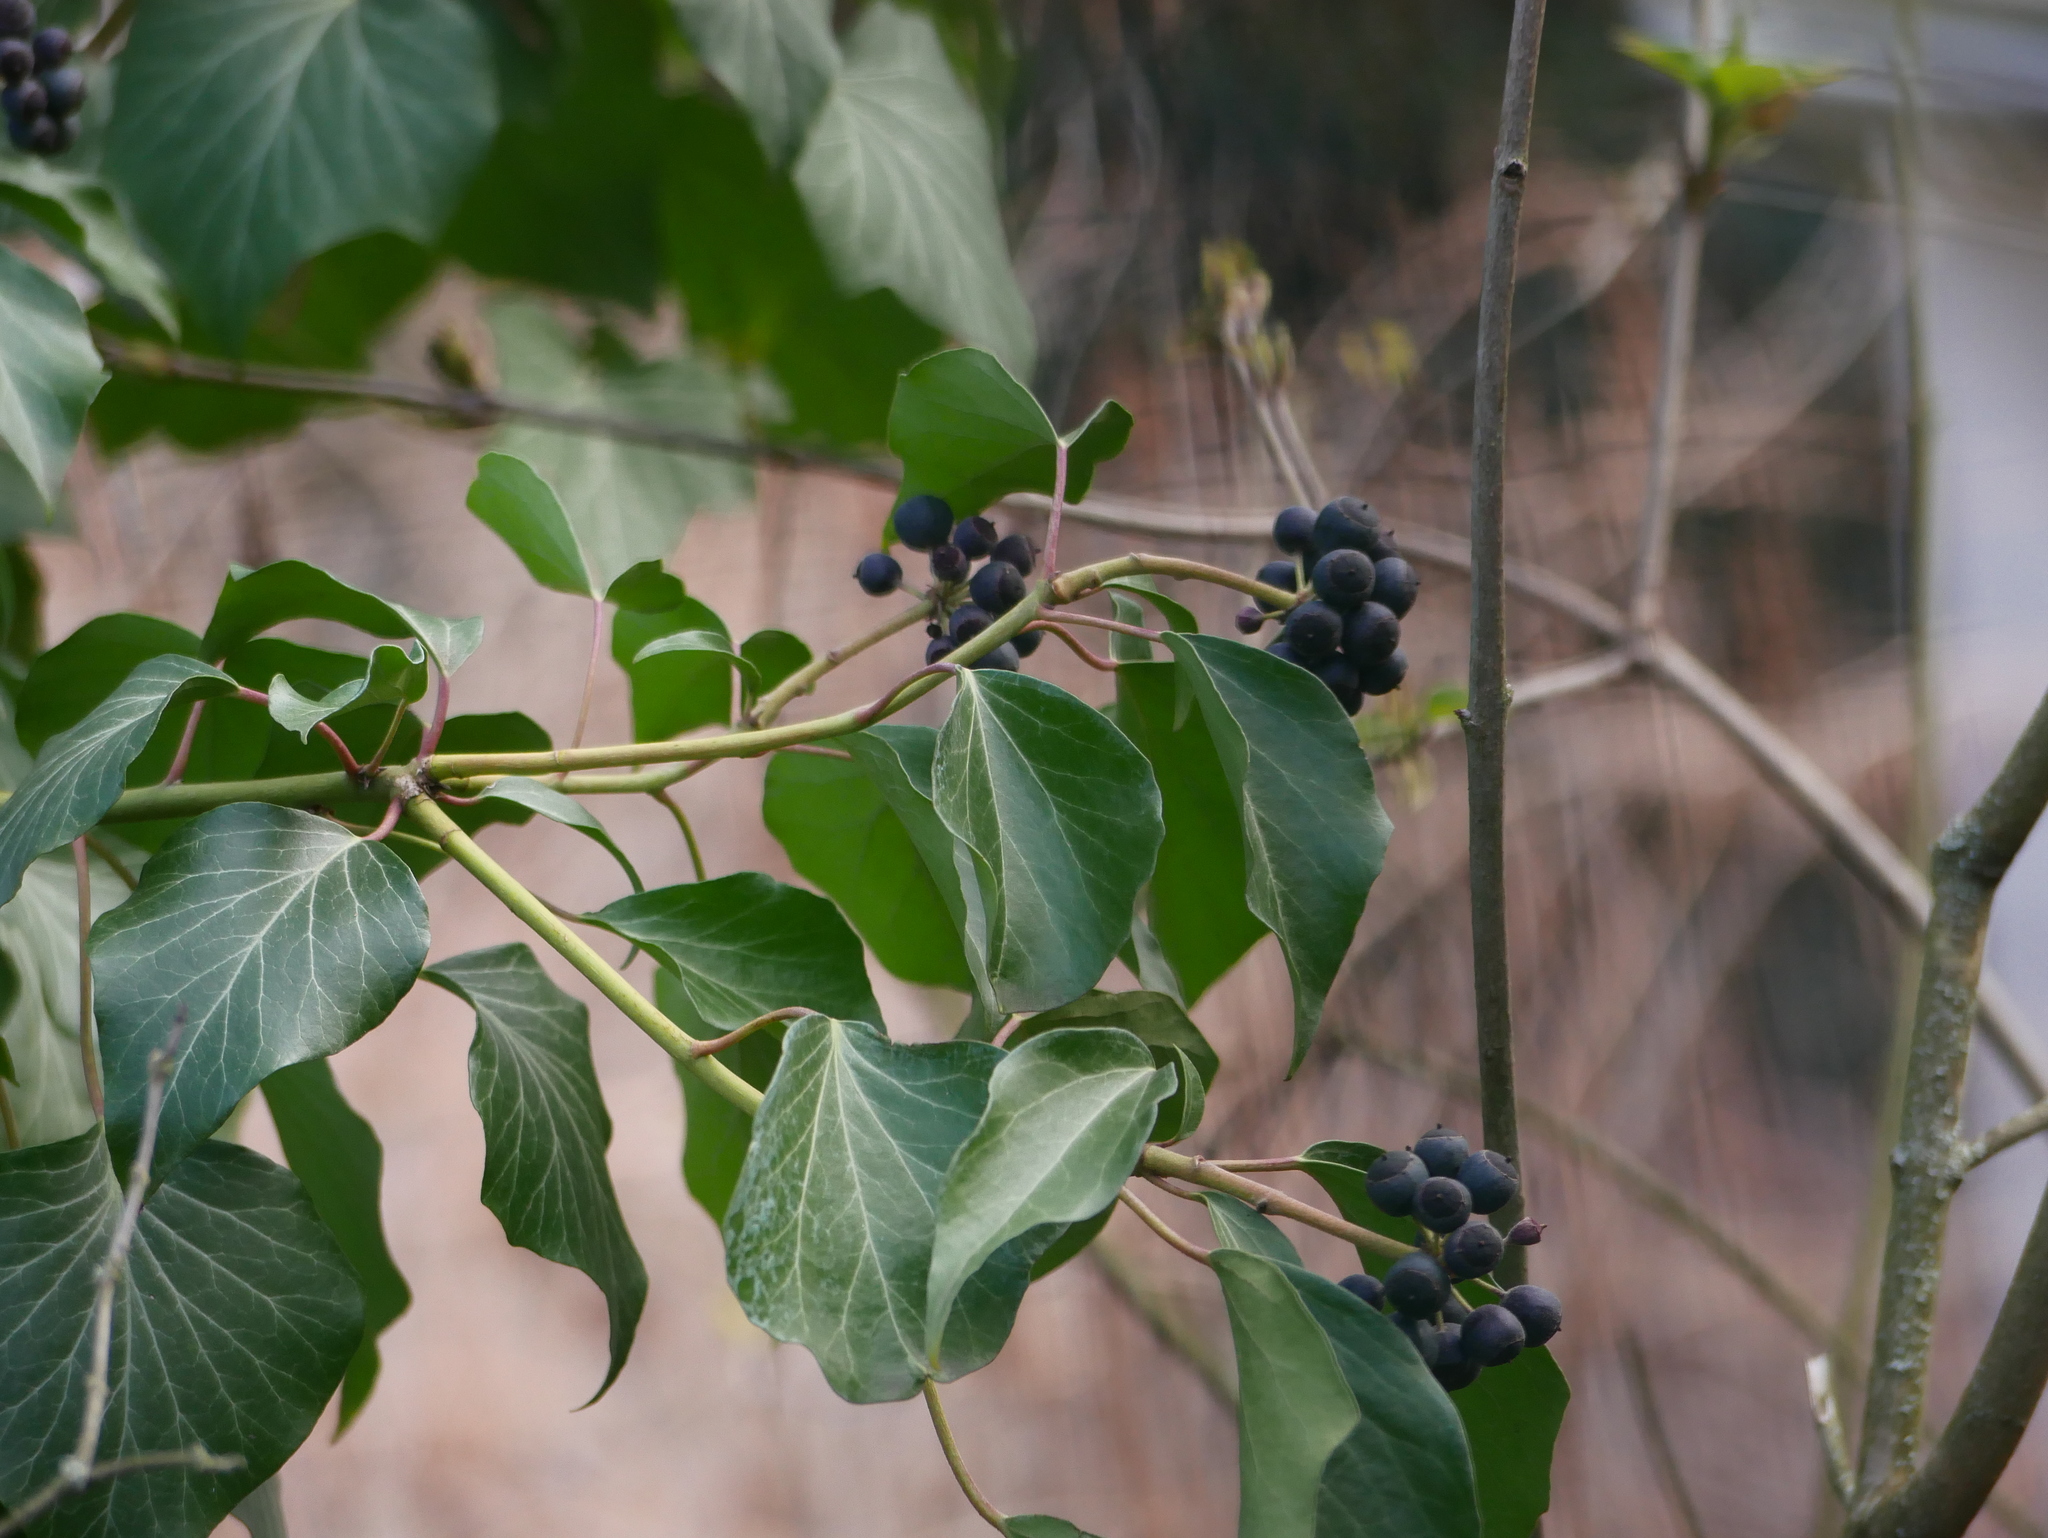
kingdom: Plantae
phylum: Tracheophyta
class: Magnoliopsida
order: Apiales
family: Araliaceae
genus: Hedera
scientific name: Hedera helix
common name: Ivy
